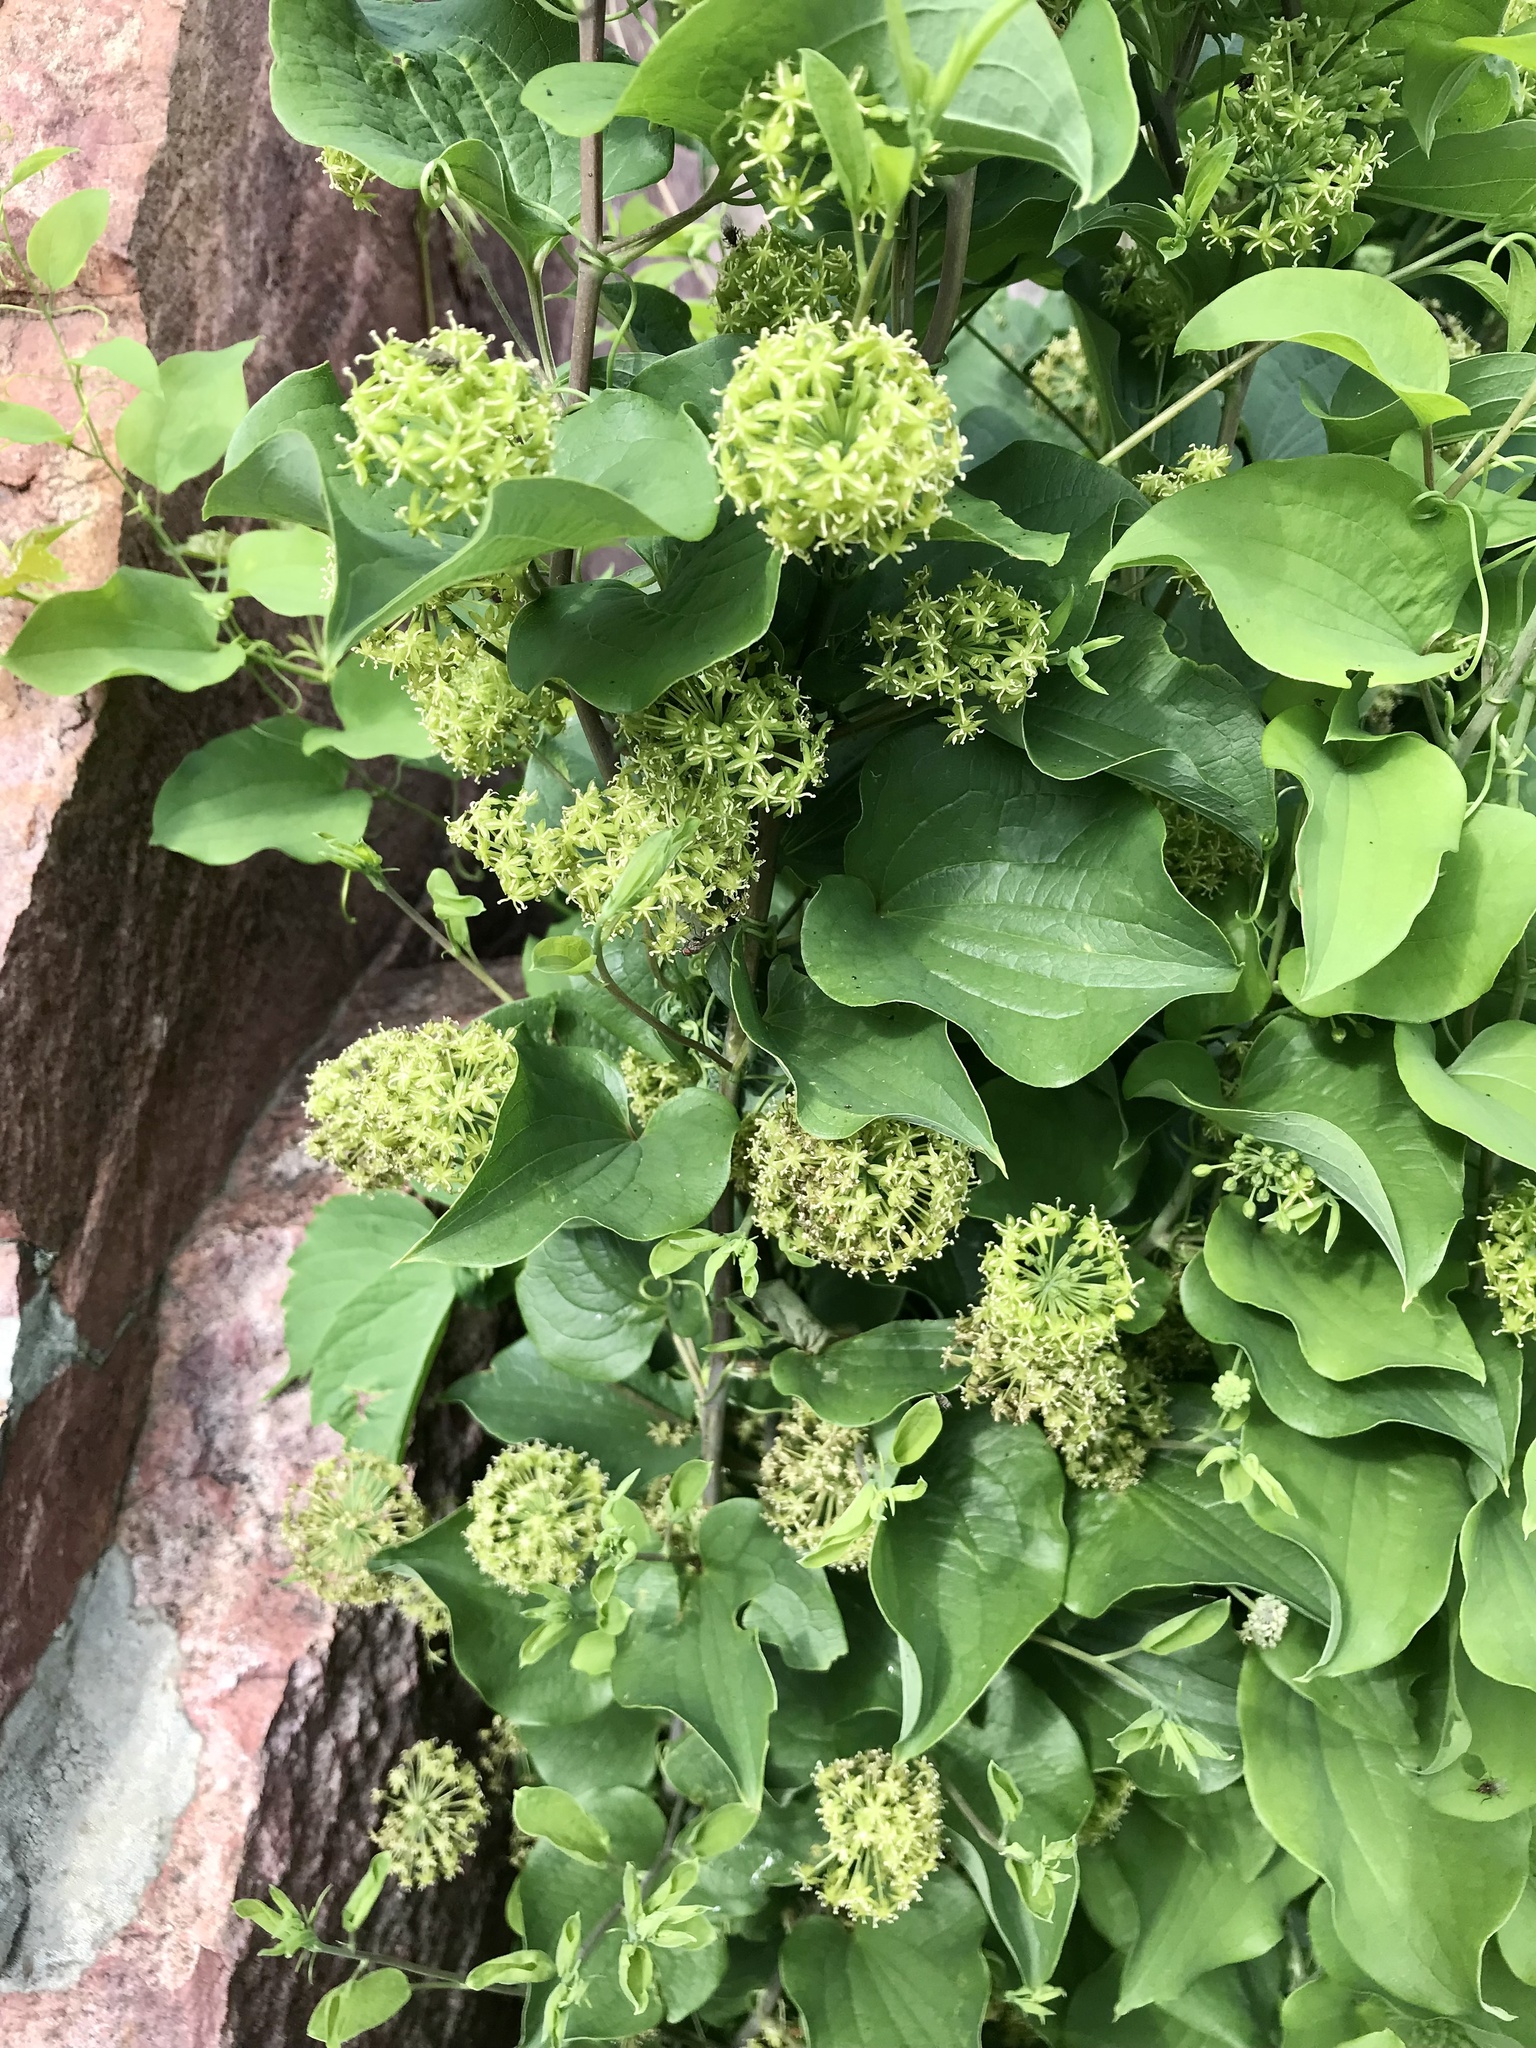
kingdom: Plantae
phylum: Tracheophyta
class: Liliopsida
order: Liliales
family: Smilacaceae
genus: Smilax
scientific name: Smilax lasioneura
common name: Blue ridge carrionflower
